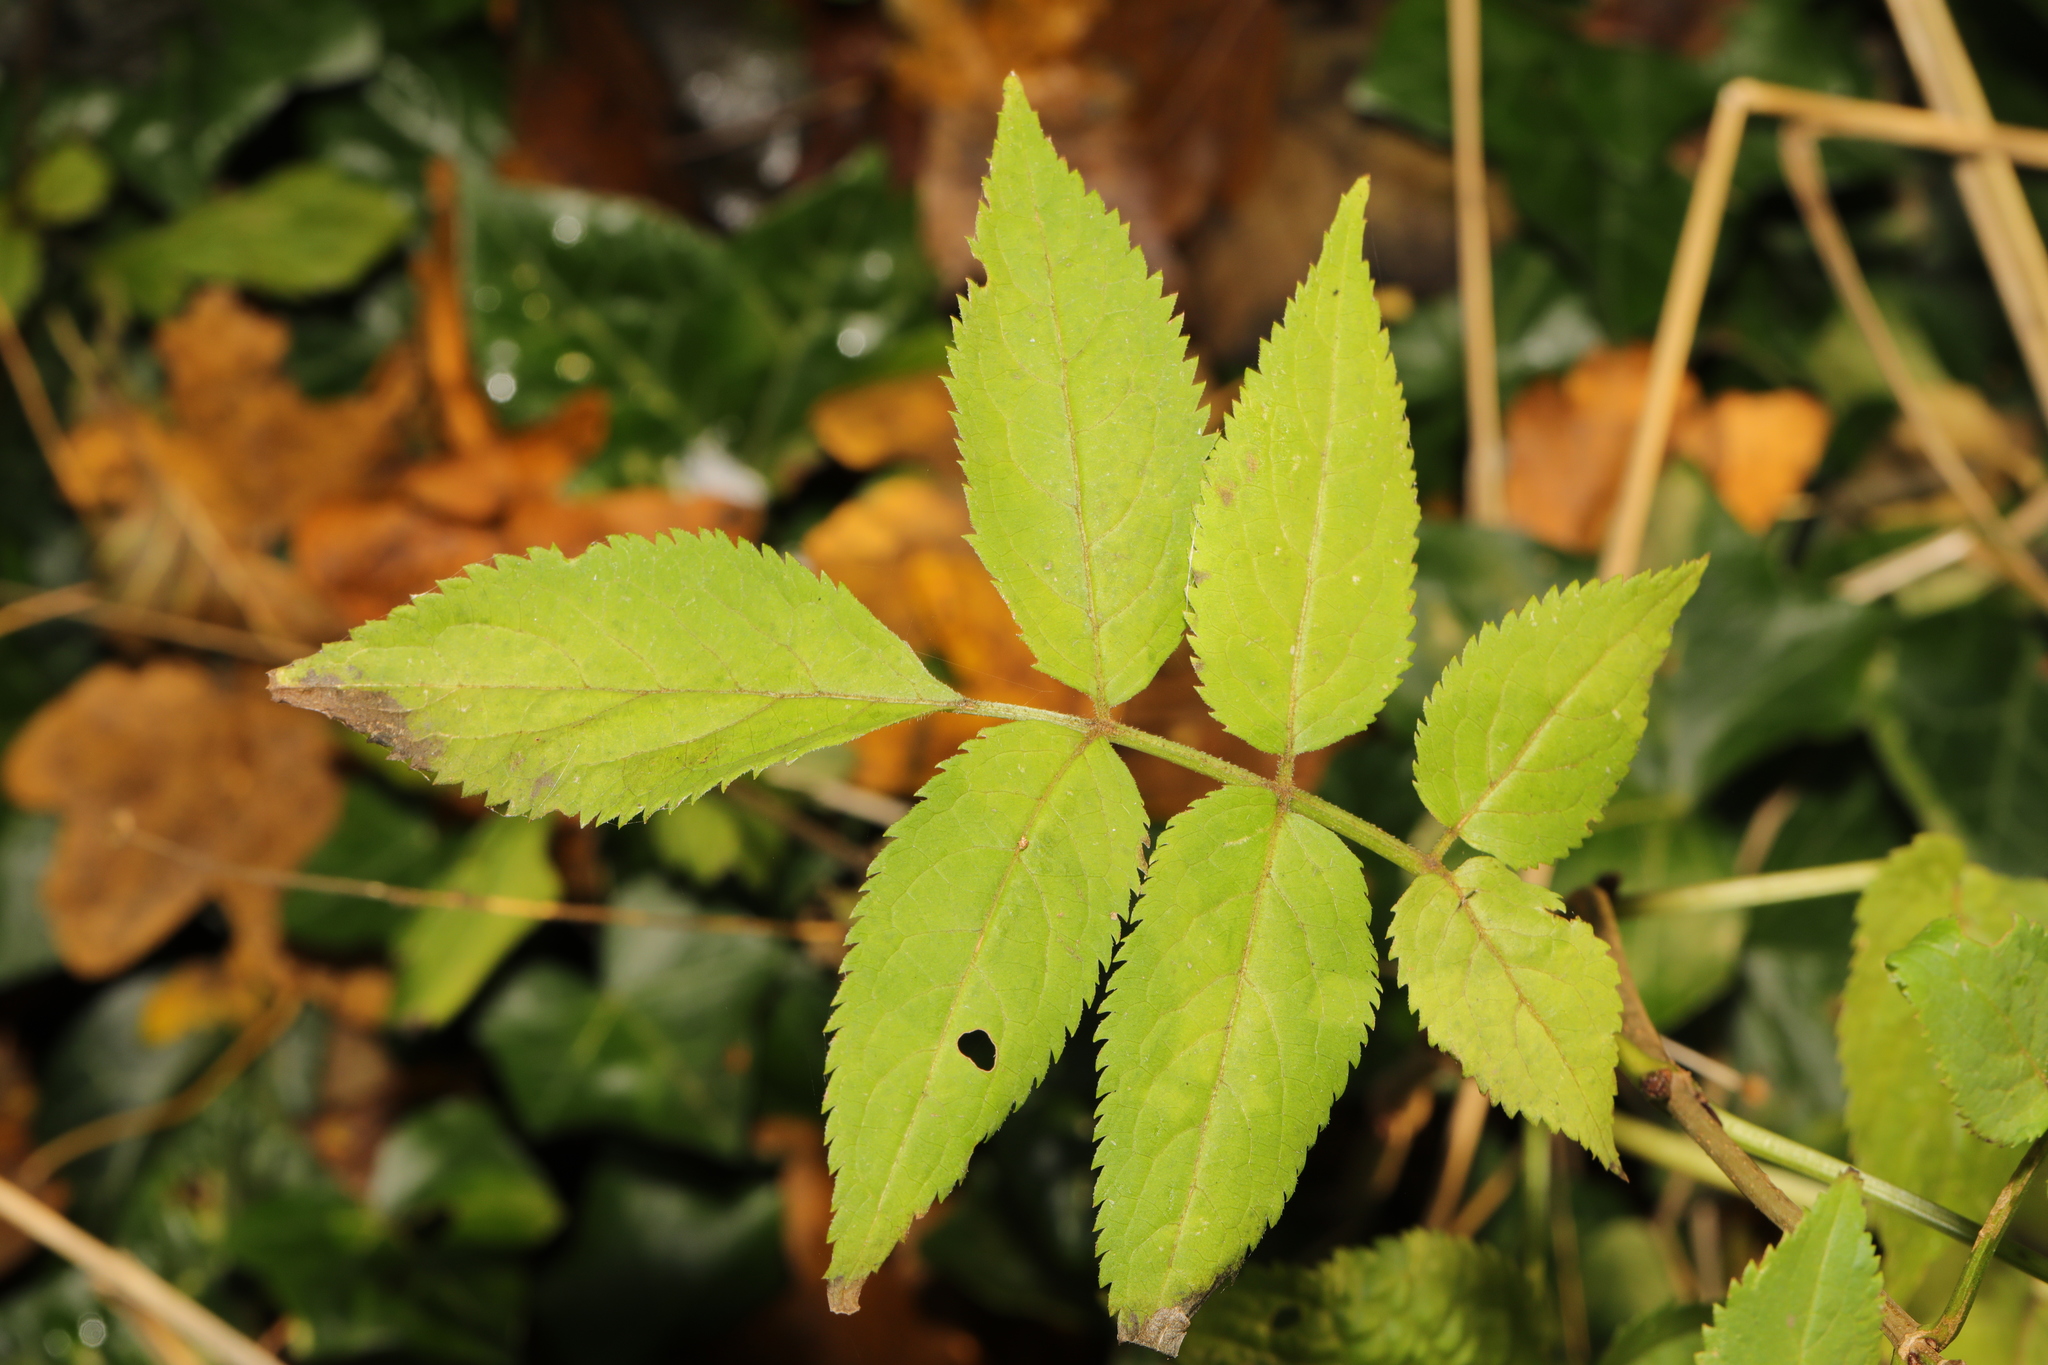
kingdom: Plantae
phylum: Tracheophyta
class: Magnoliopsida
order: Dipsacales
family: Viburnaceae
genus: Sambucus
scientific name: Sambucus nigra
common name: Elder
